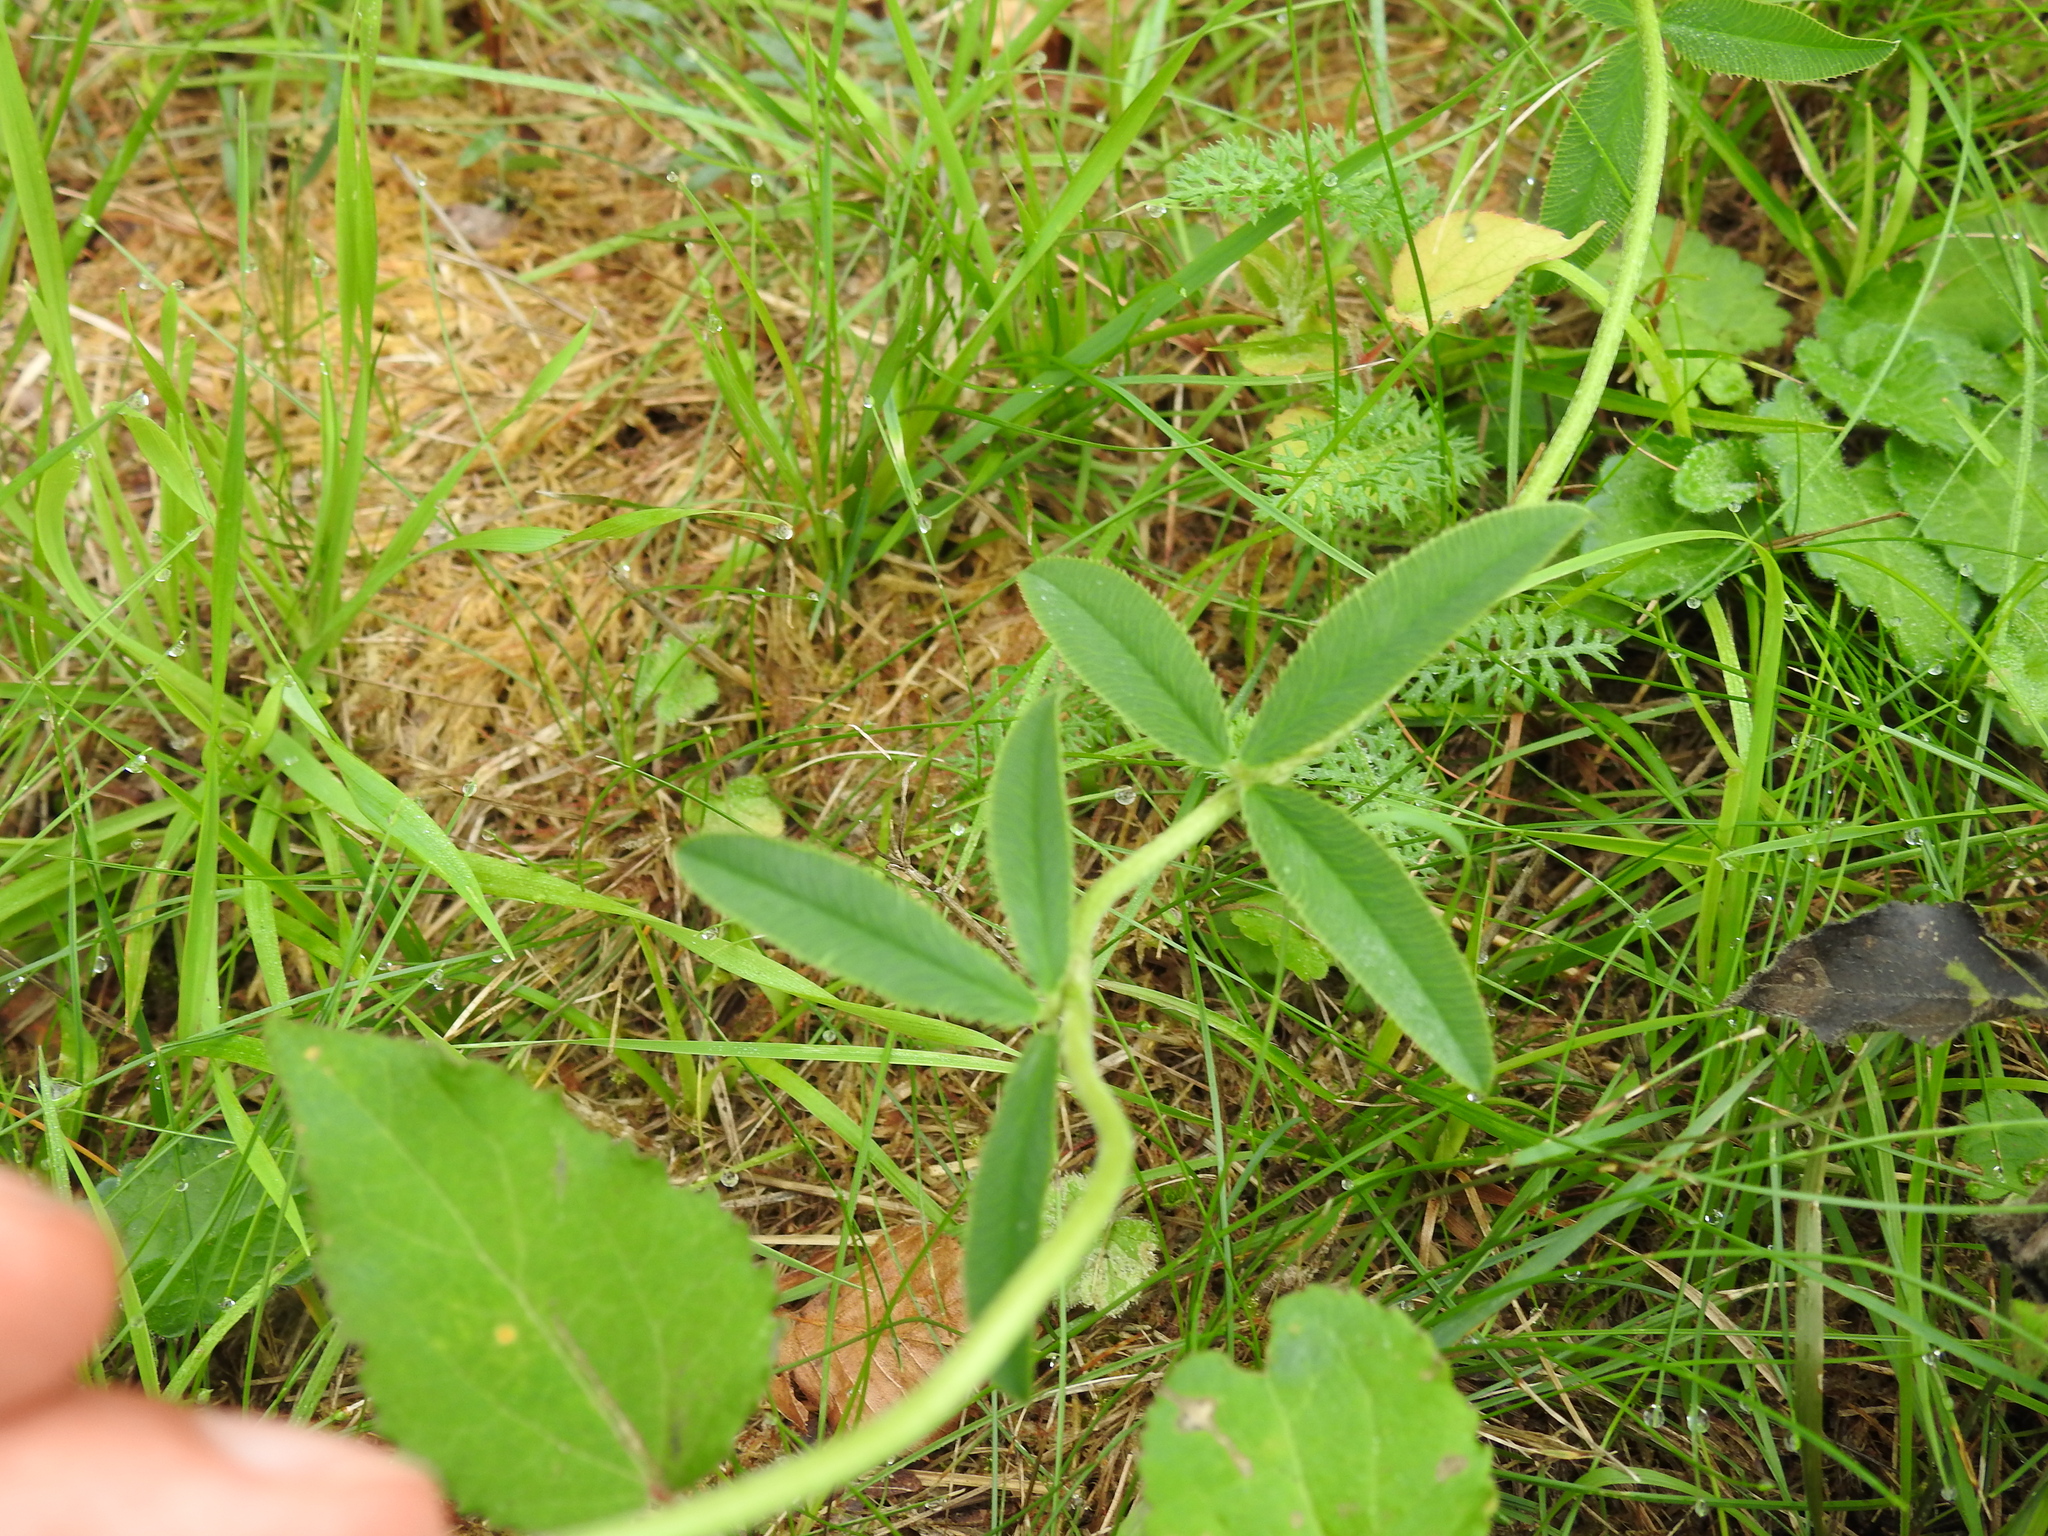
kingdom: Plantae
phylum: Tracheophyta
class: Magnoliopsida
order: Fabales
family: Fabaceae
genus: Trifolium
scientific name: Trifolium montanum
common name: Mountain clover
